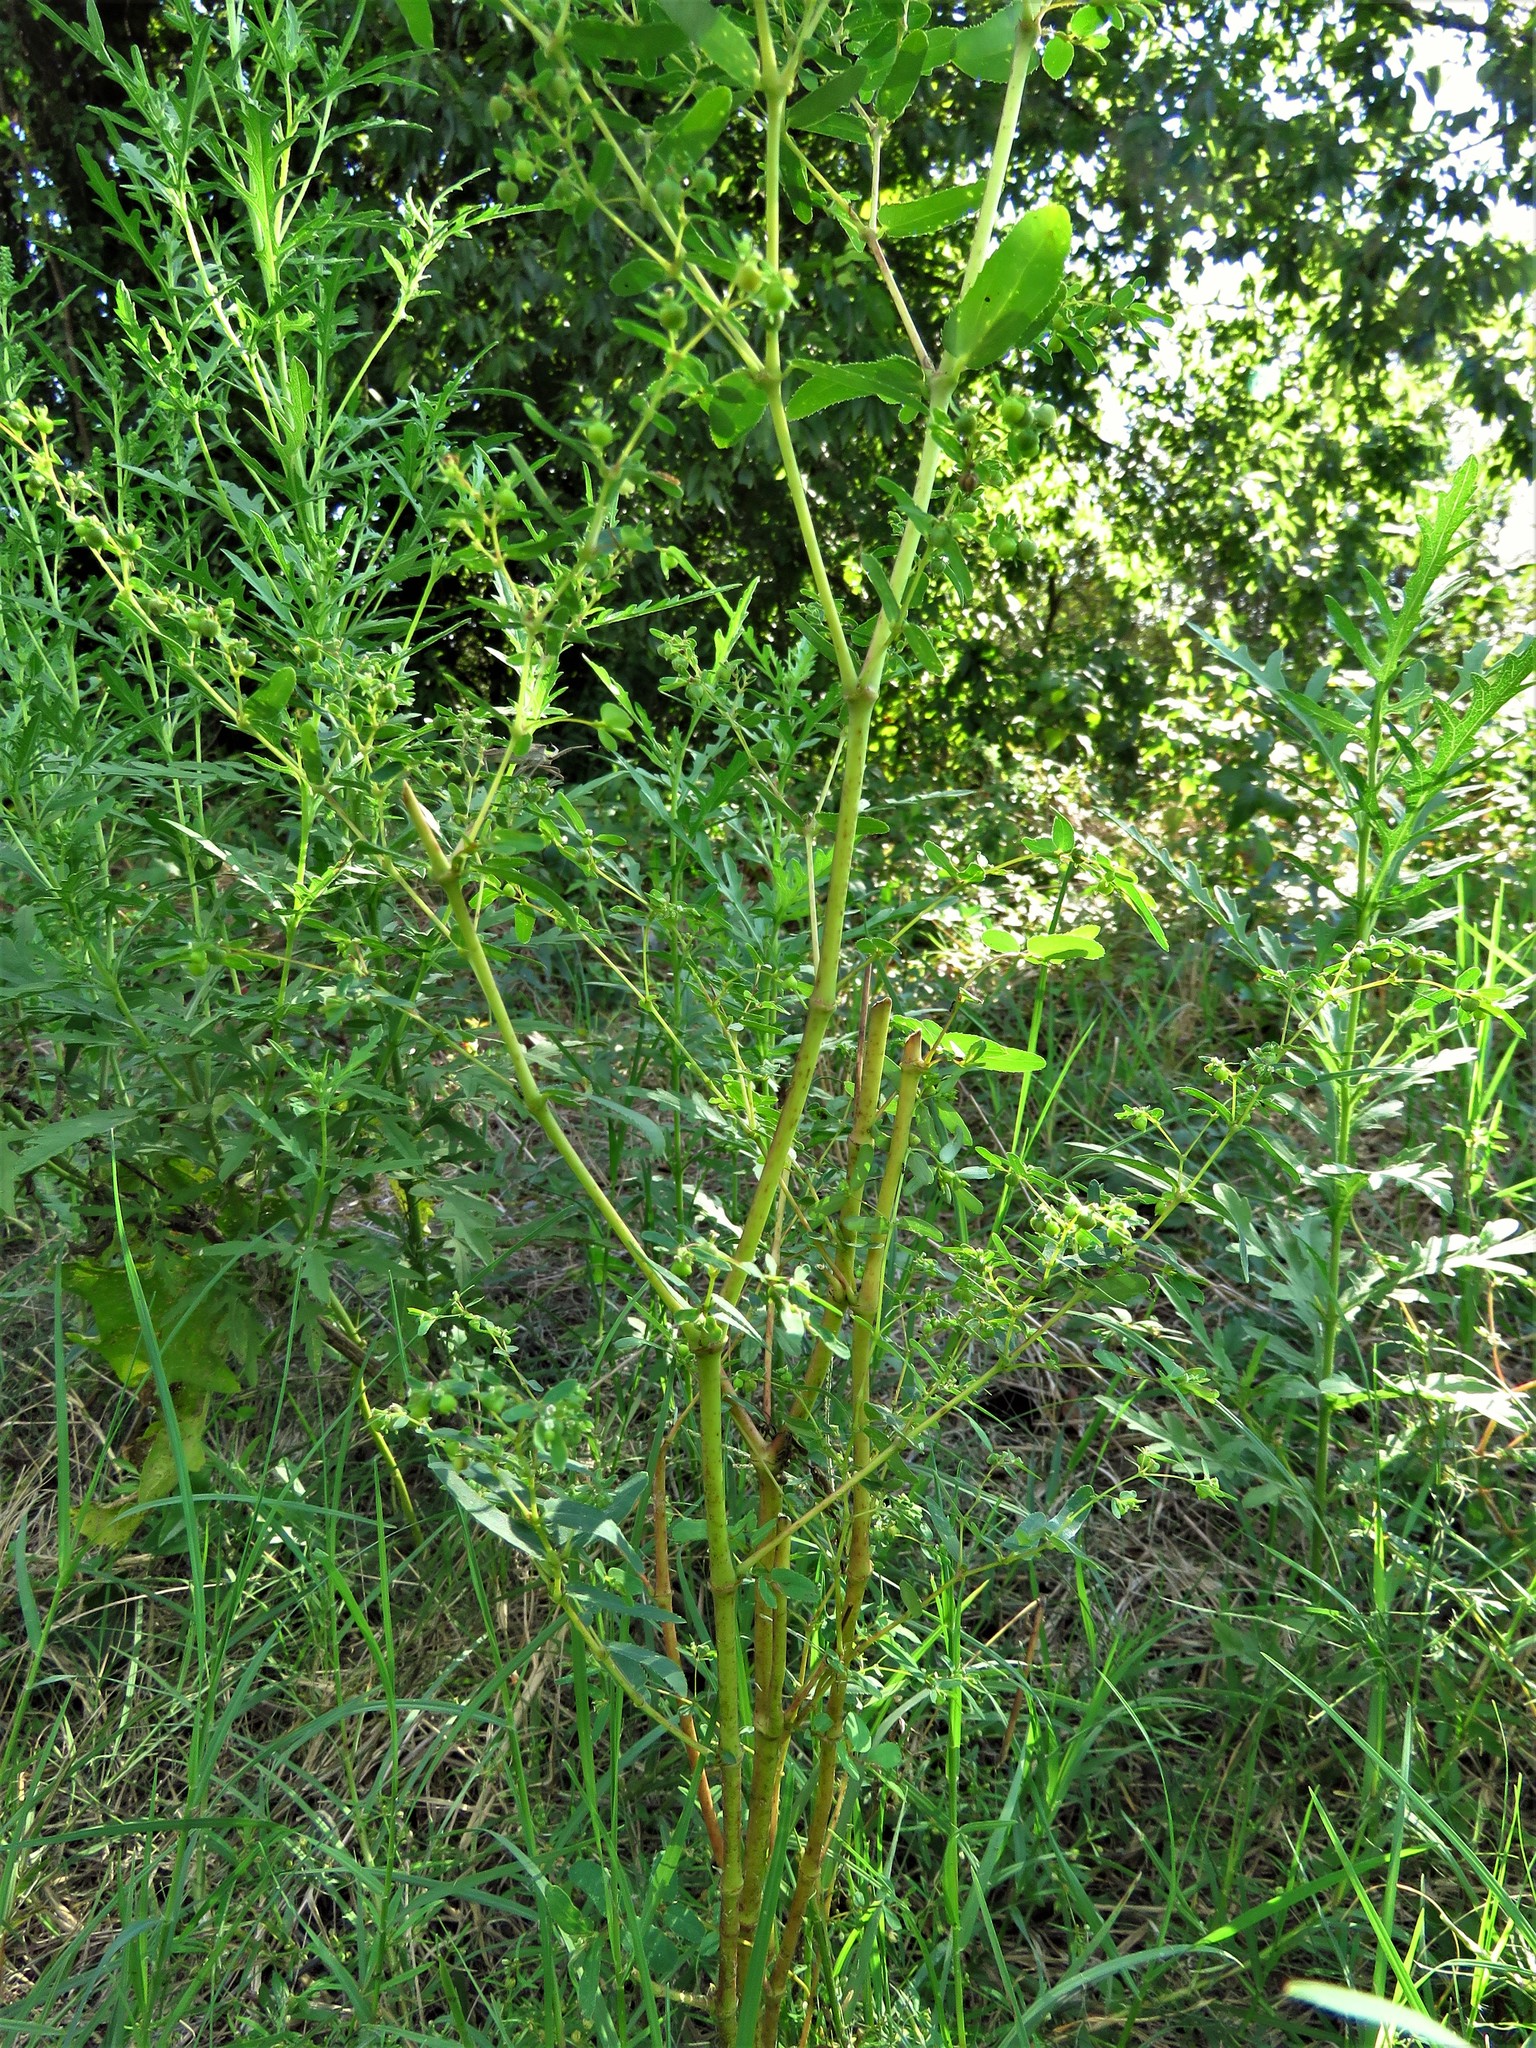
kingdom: Plantae
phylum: Tracheophyta
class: Magnoliopsida
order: Malpighiales
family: Euphorbiaceae
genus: Euphorbia
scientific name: Euphorbia hyssopifolia
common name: Hyssopleaf sandmat
